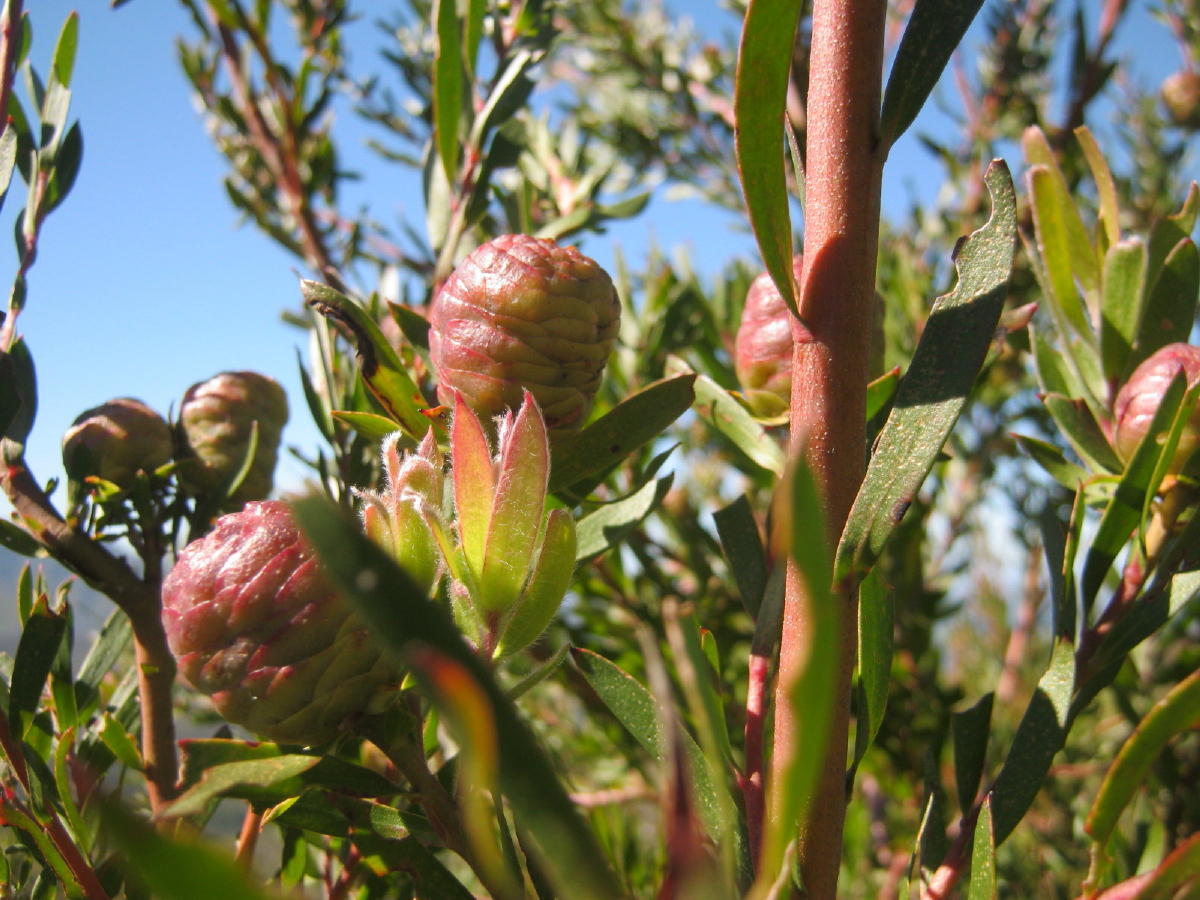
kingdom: Plantae
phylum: Tracheophyta
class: Magnoliopsida
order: Proteales
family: Proteaceae
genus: Leucadendron
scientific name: Leucadendron conicum
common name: Garden route conebush
